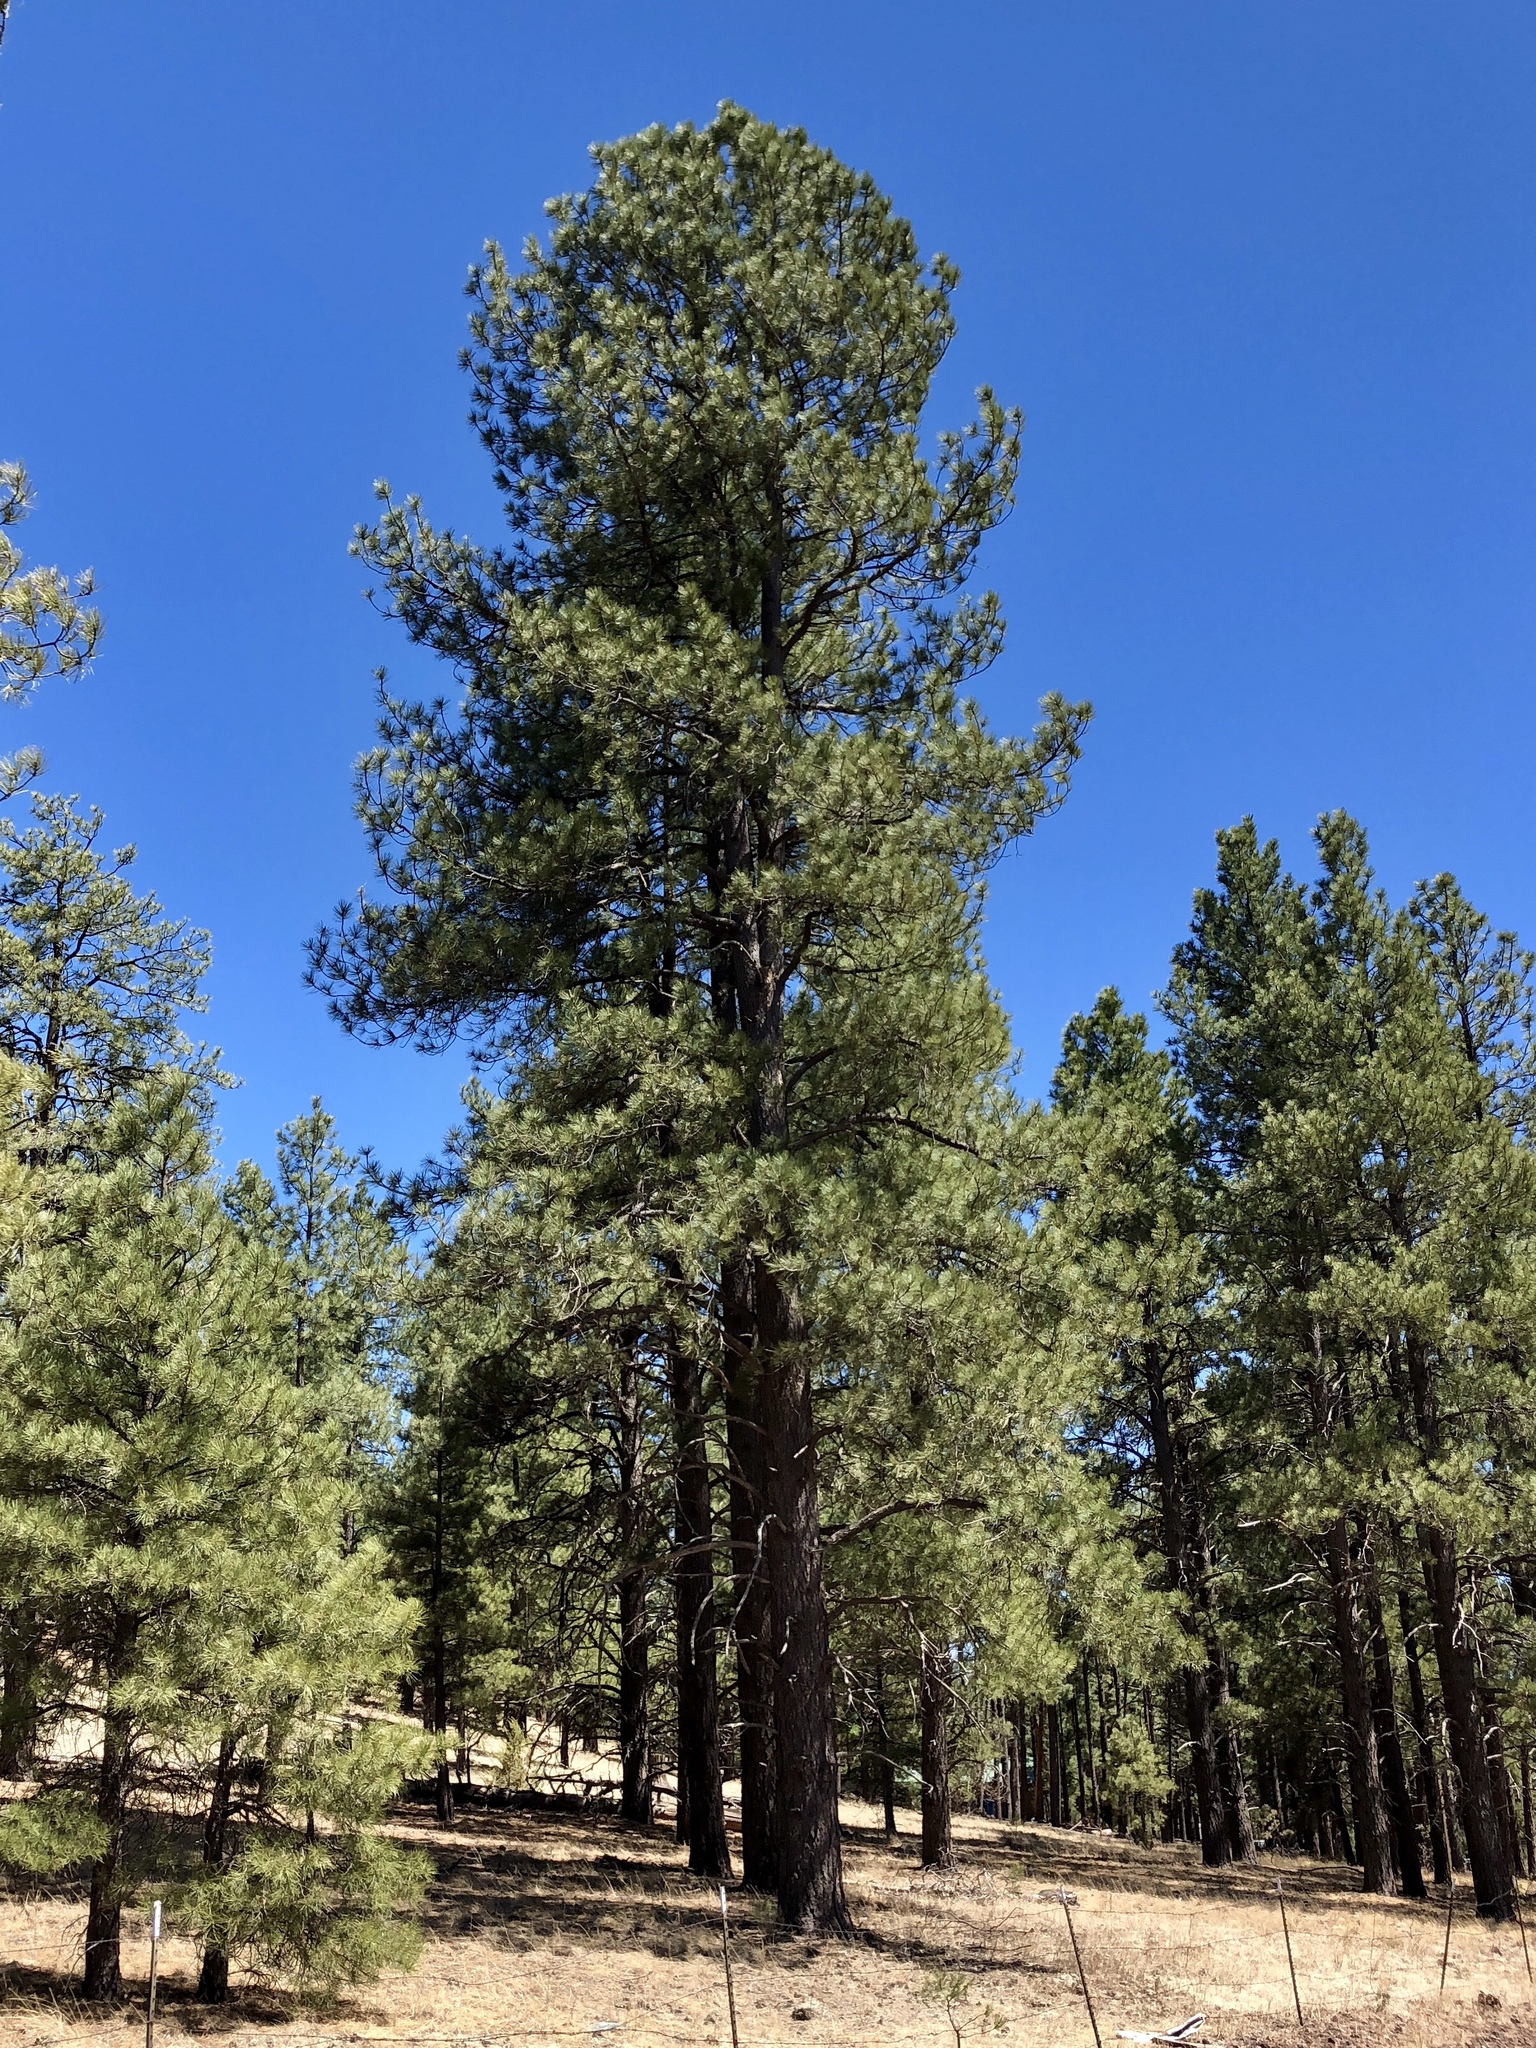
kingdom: Plantae
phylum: Tracheophyta
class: Pinopsida
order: Pinales
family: Pinaceae
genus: Pinus
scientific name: Pinus ponderosa
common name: Western yellow-pine
